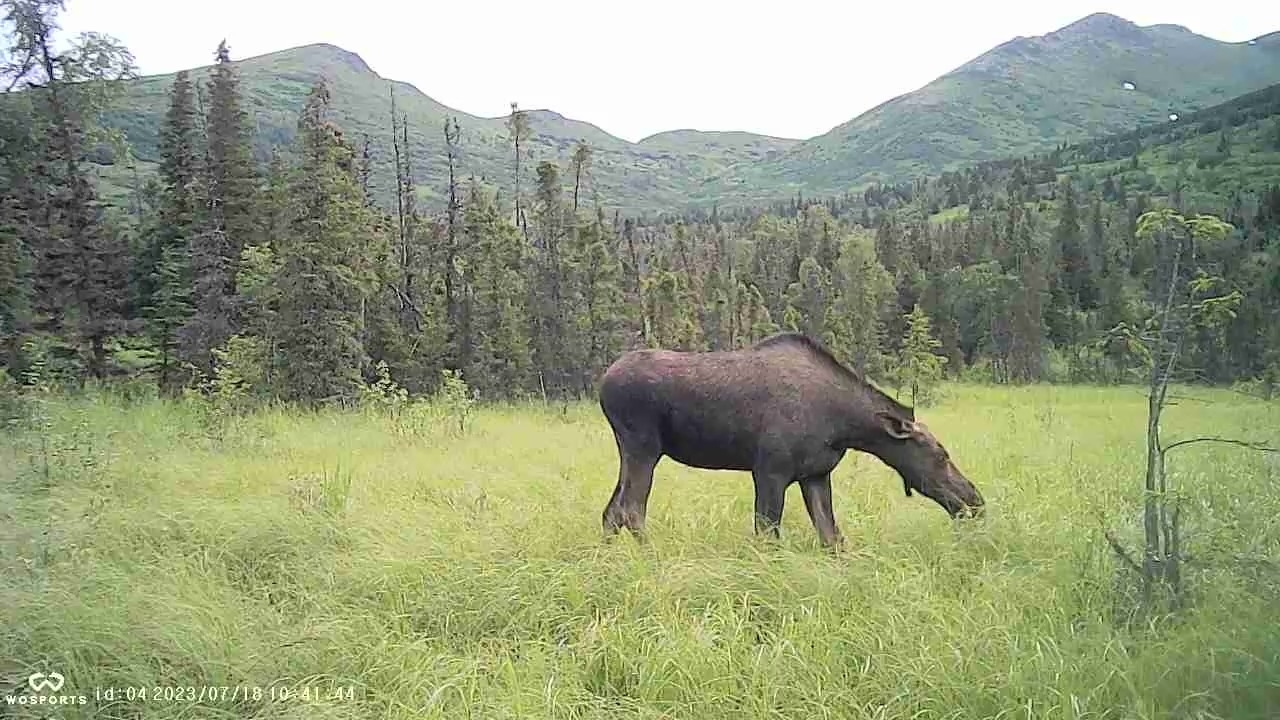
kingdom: Animalia
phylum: Chordata
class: Mammalia
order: Artiodactyla
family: Cervidae
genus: Alces
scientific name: Alces alces
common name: Moose
